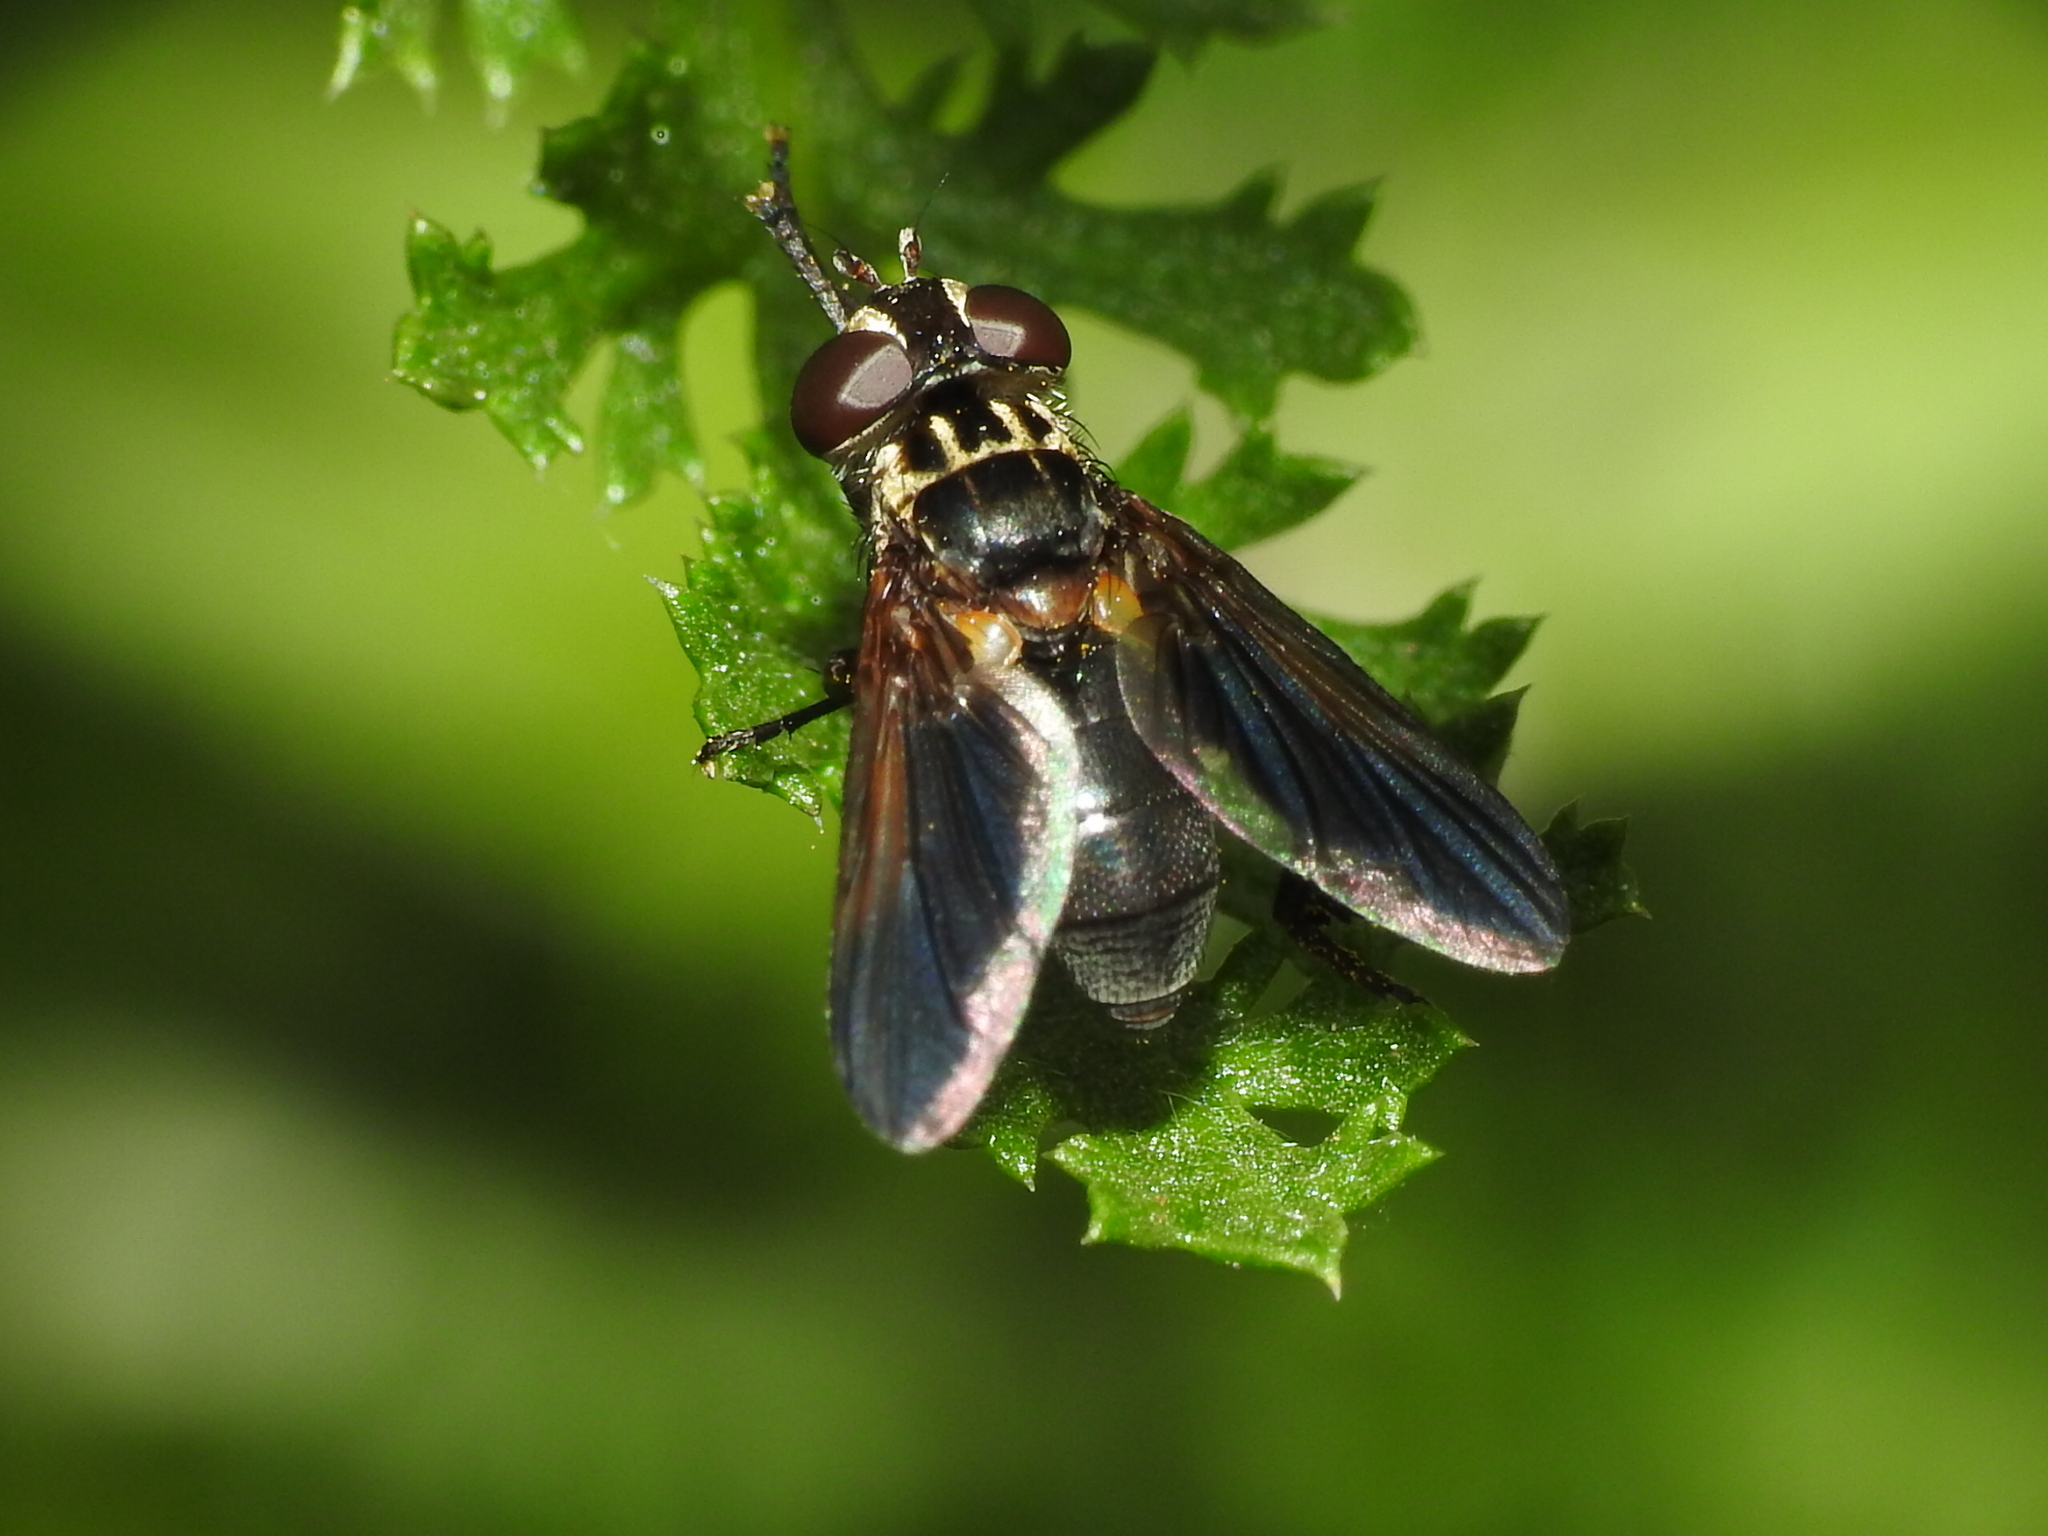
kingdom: Animalia
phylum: Arthropoda
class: Insecta
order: Diptera
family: Tachinidae
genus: Trichopoda
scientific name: Trichopoda pictipennis
